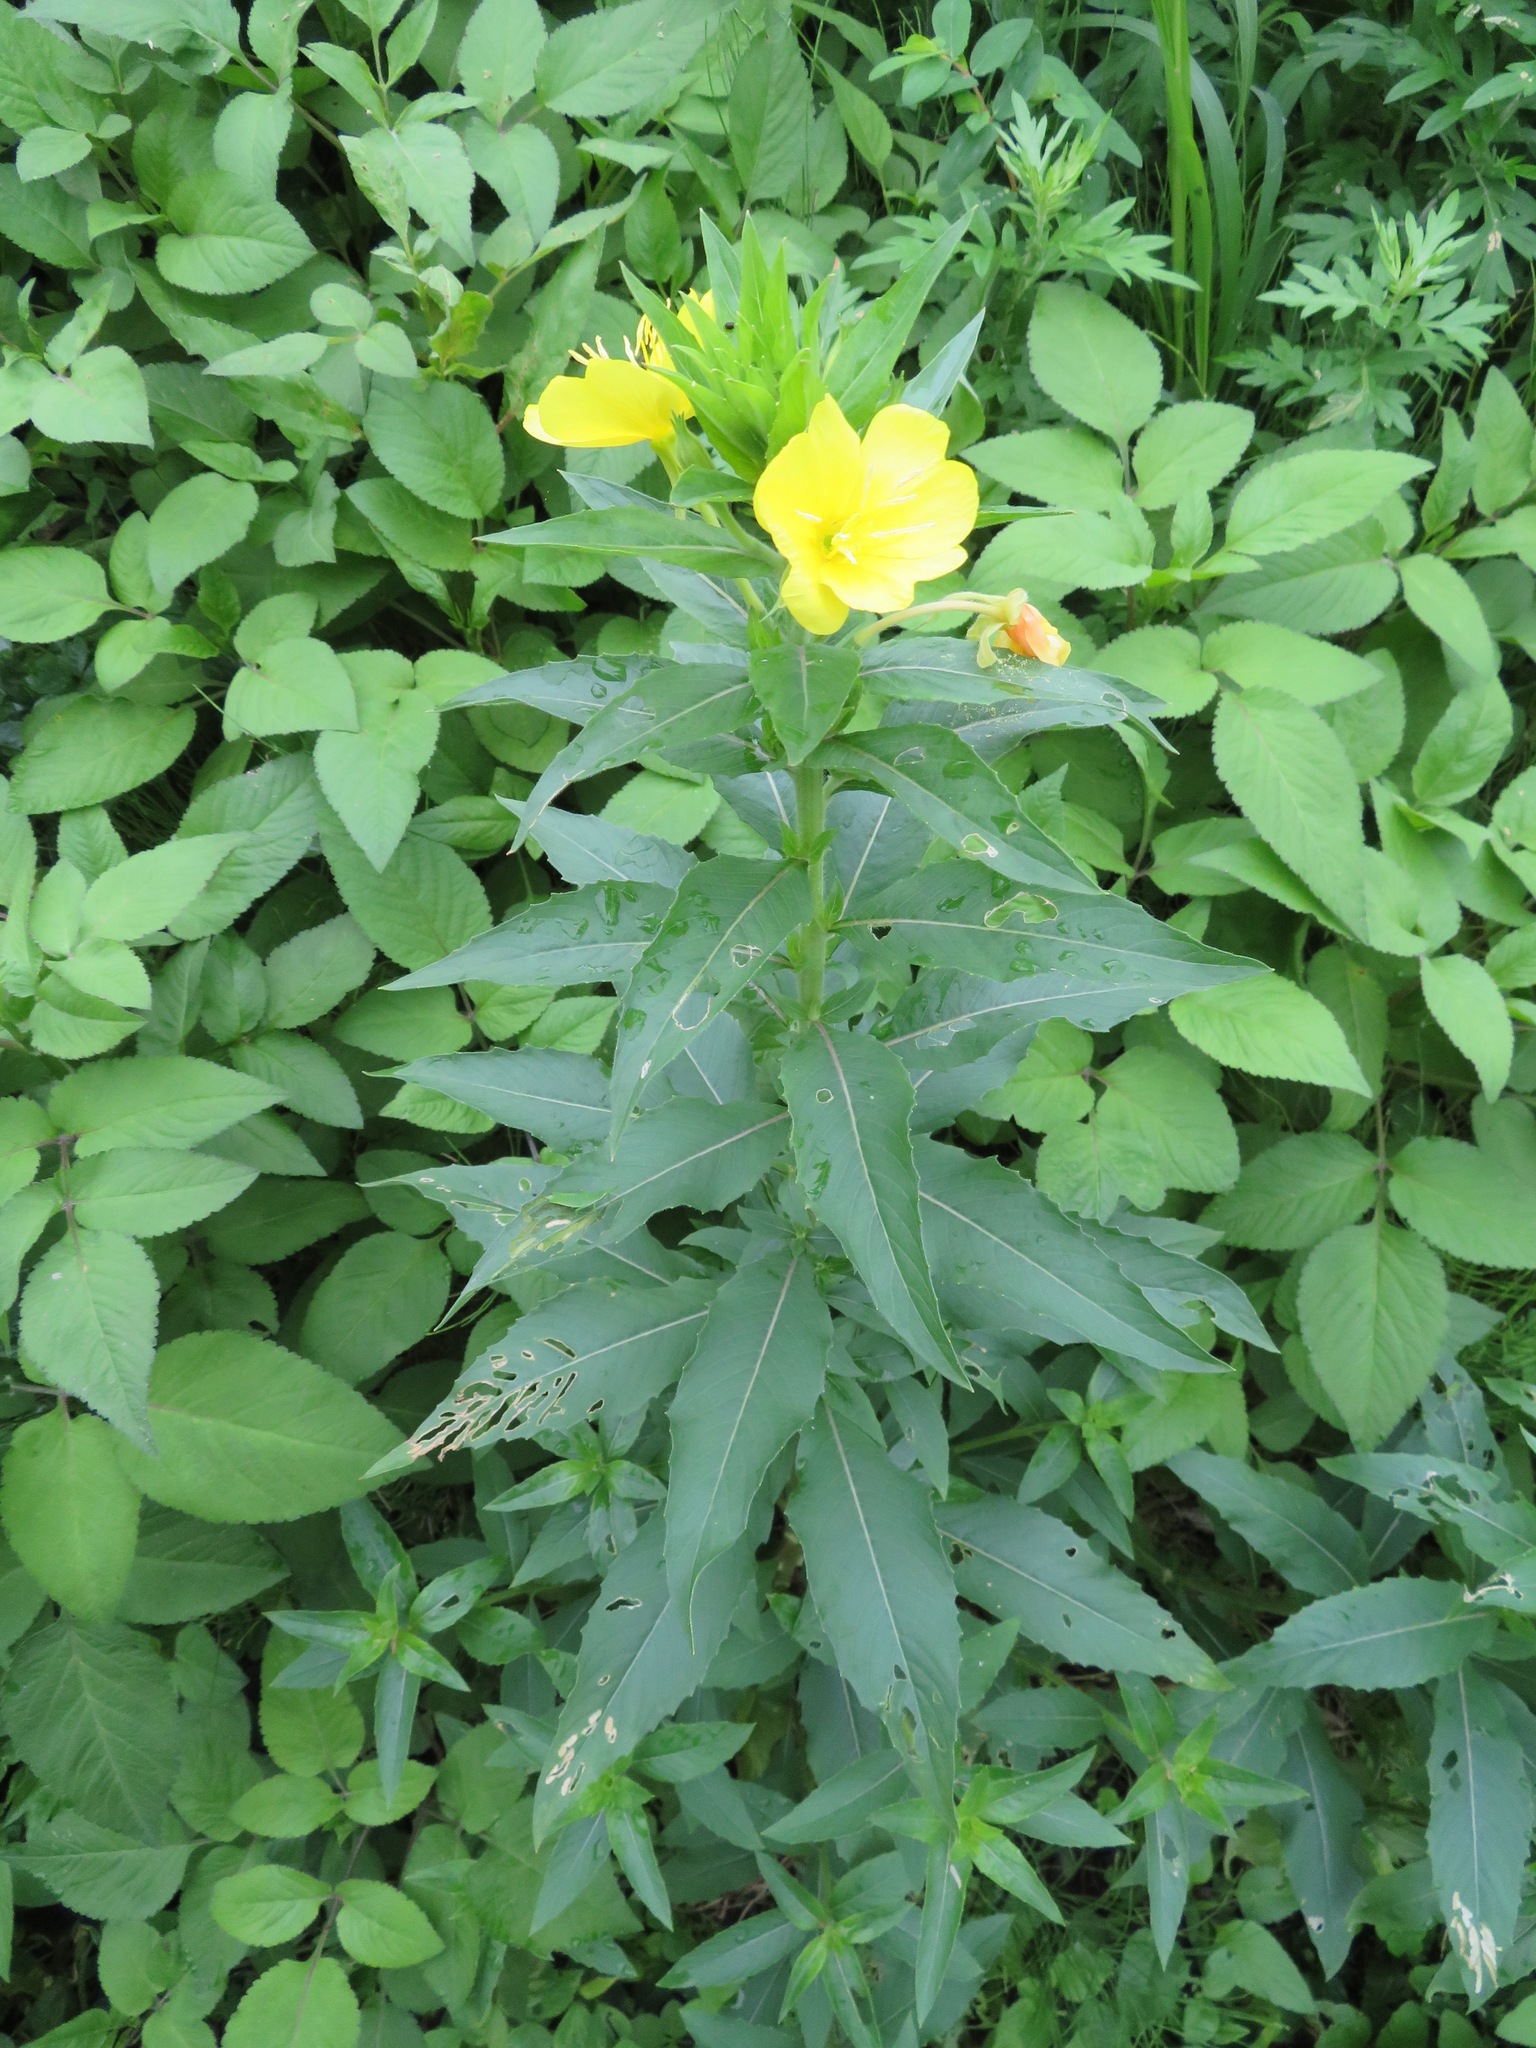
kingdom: Plantae
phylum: Tracheophyta
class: Magnoliopsida
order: Myrtales
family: Onagraceae
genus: Oenothera
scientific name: Oenothera biennis
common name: Common evening-primrose
